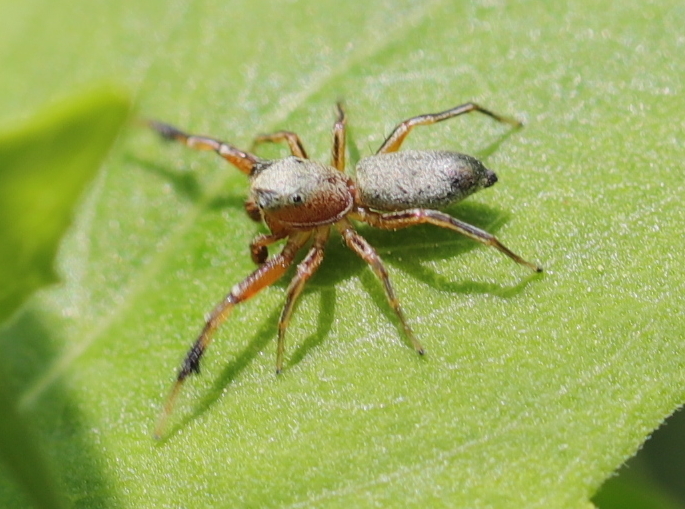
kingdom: Animalia
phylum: Arthropoda
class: Arachnida
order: Araneae
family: Salticidae
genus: Tutelina
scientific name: Tutelina elegans
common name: Thin-spined jumping spider
